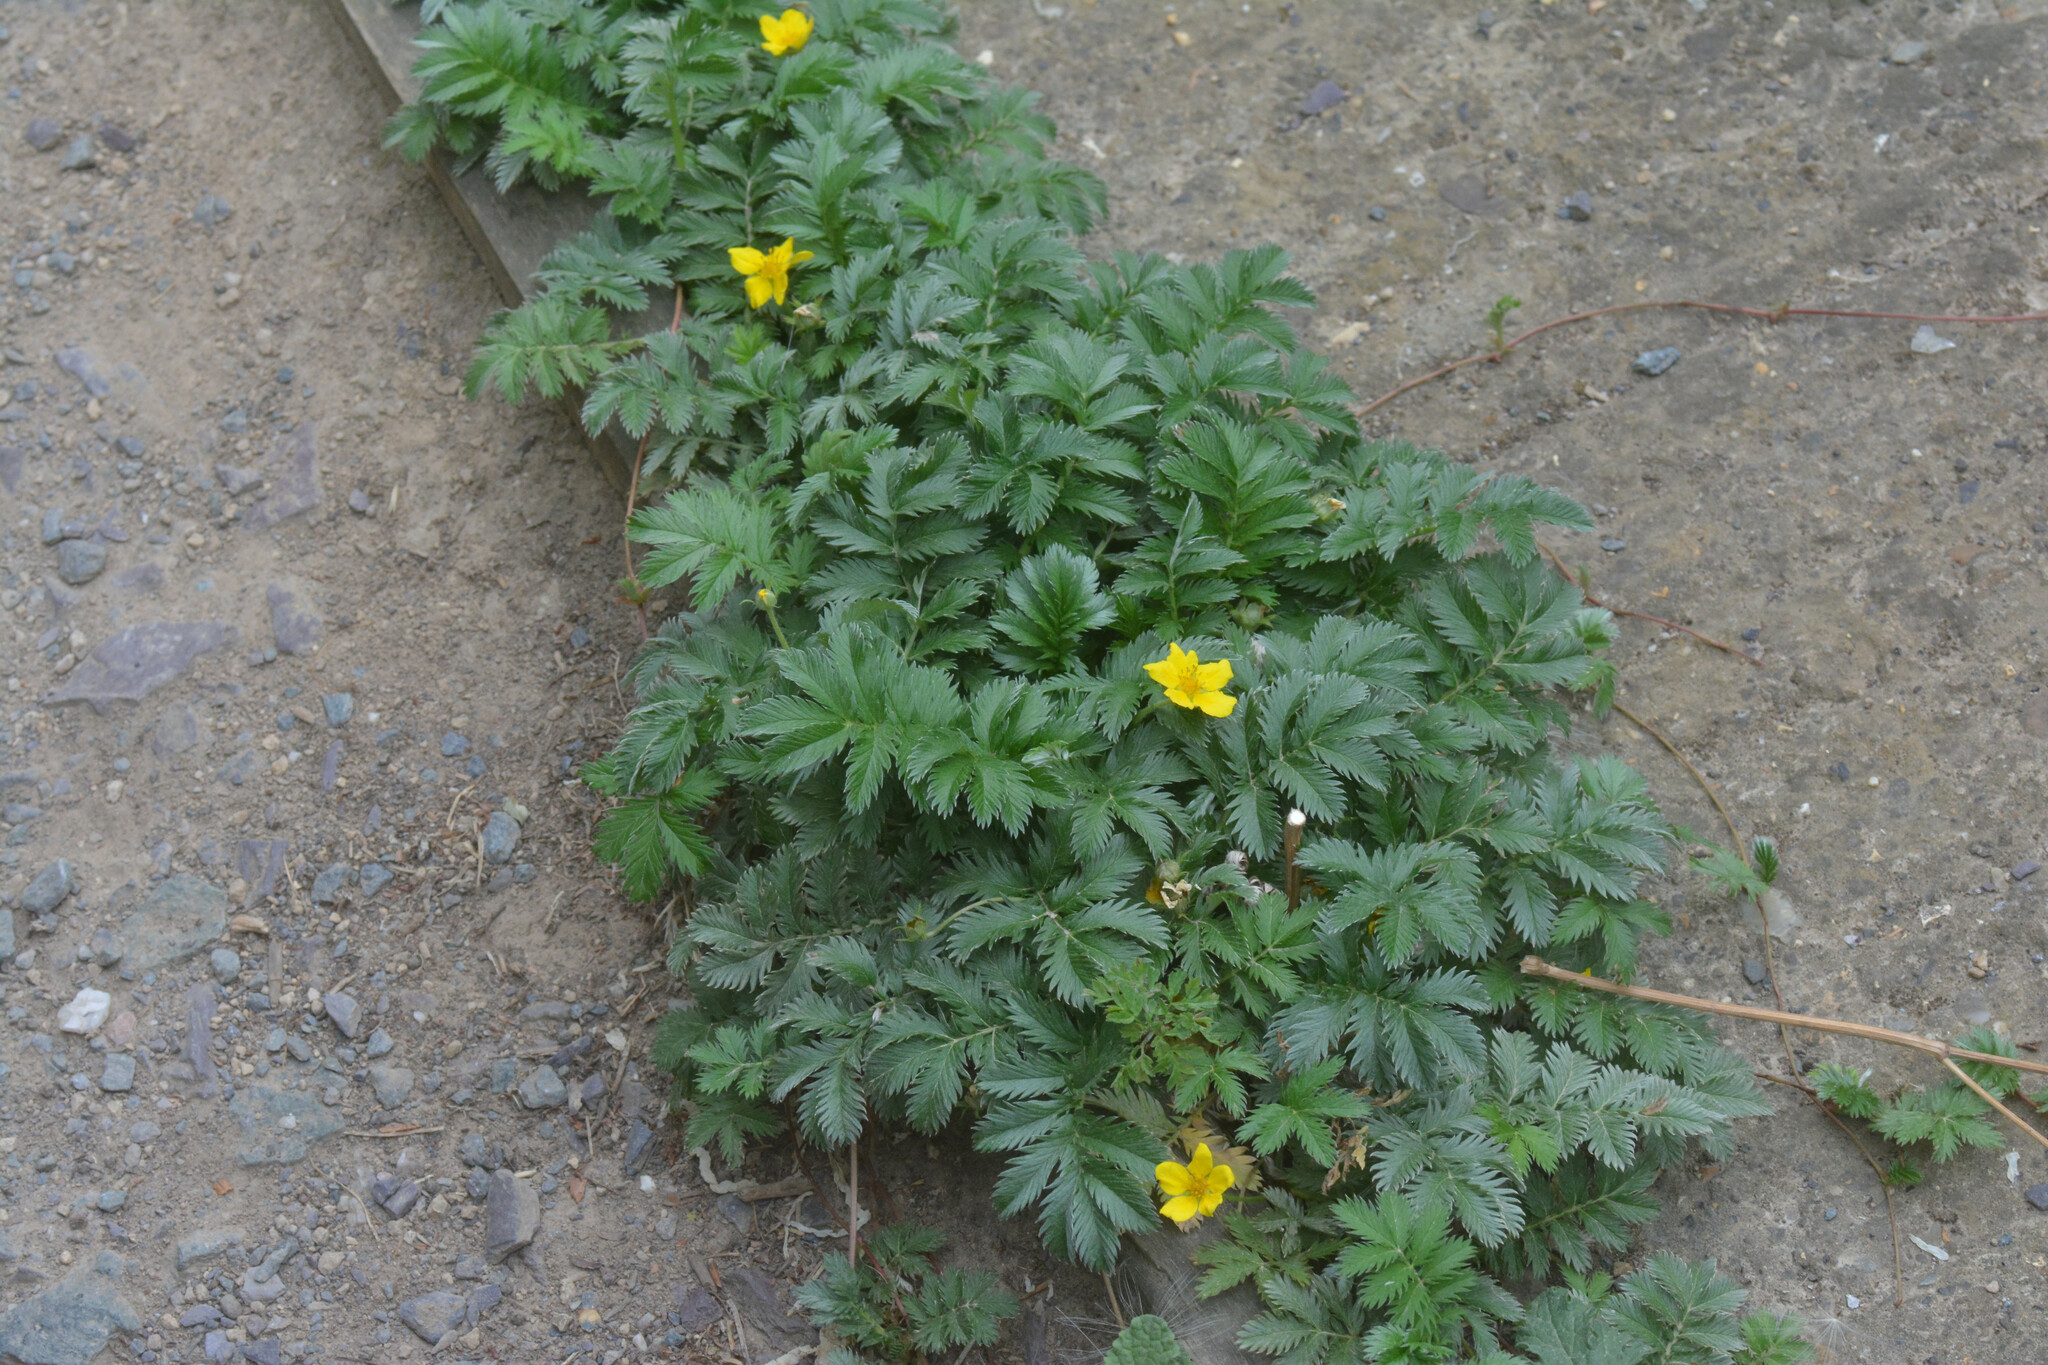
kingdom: Plantae
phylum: Tracheophyta
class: Magnoliopsida
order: Rosales
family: Rosaceae
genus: Argentina
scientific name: Argentina anserina
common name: Common silverweed
